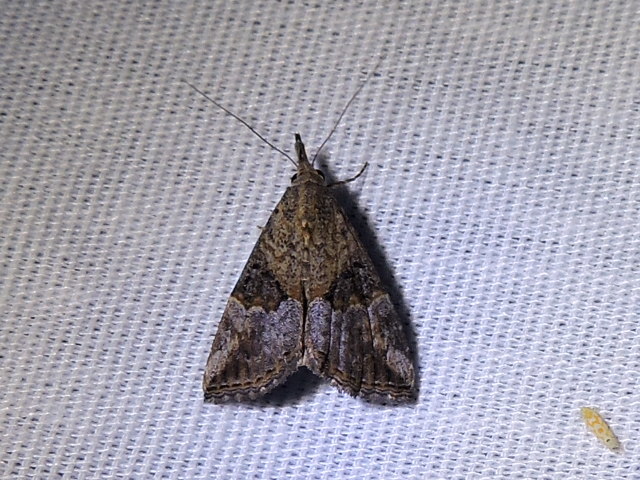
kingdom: Animalia
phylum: Arthropoda
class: Insecta
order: Lepidoptera
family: Erebidae
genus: Hypena
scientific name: Hypena minualis
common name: Sooty snout
